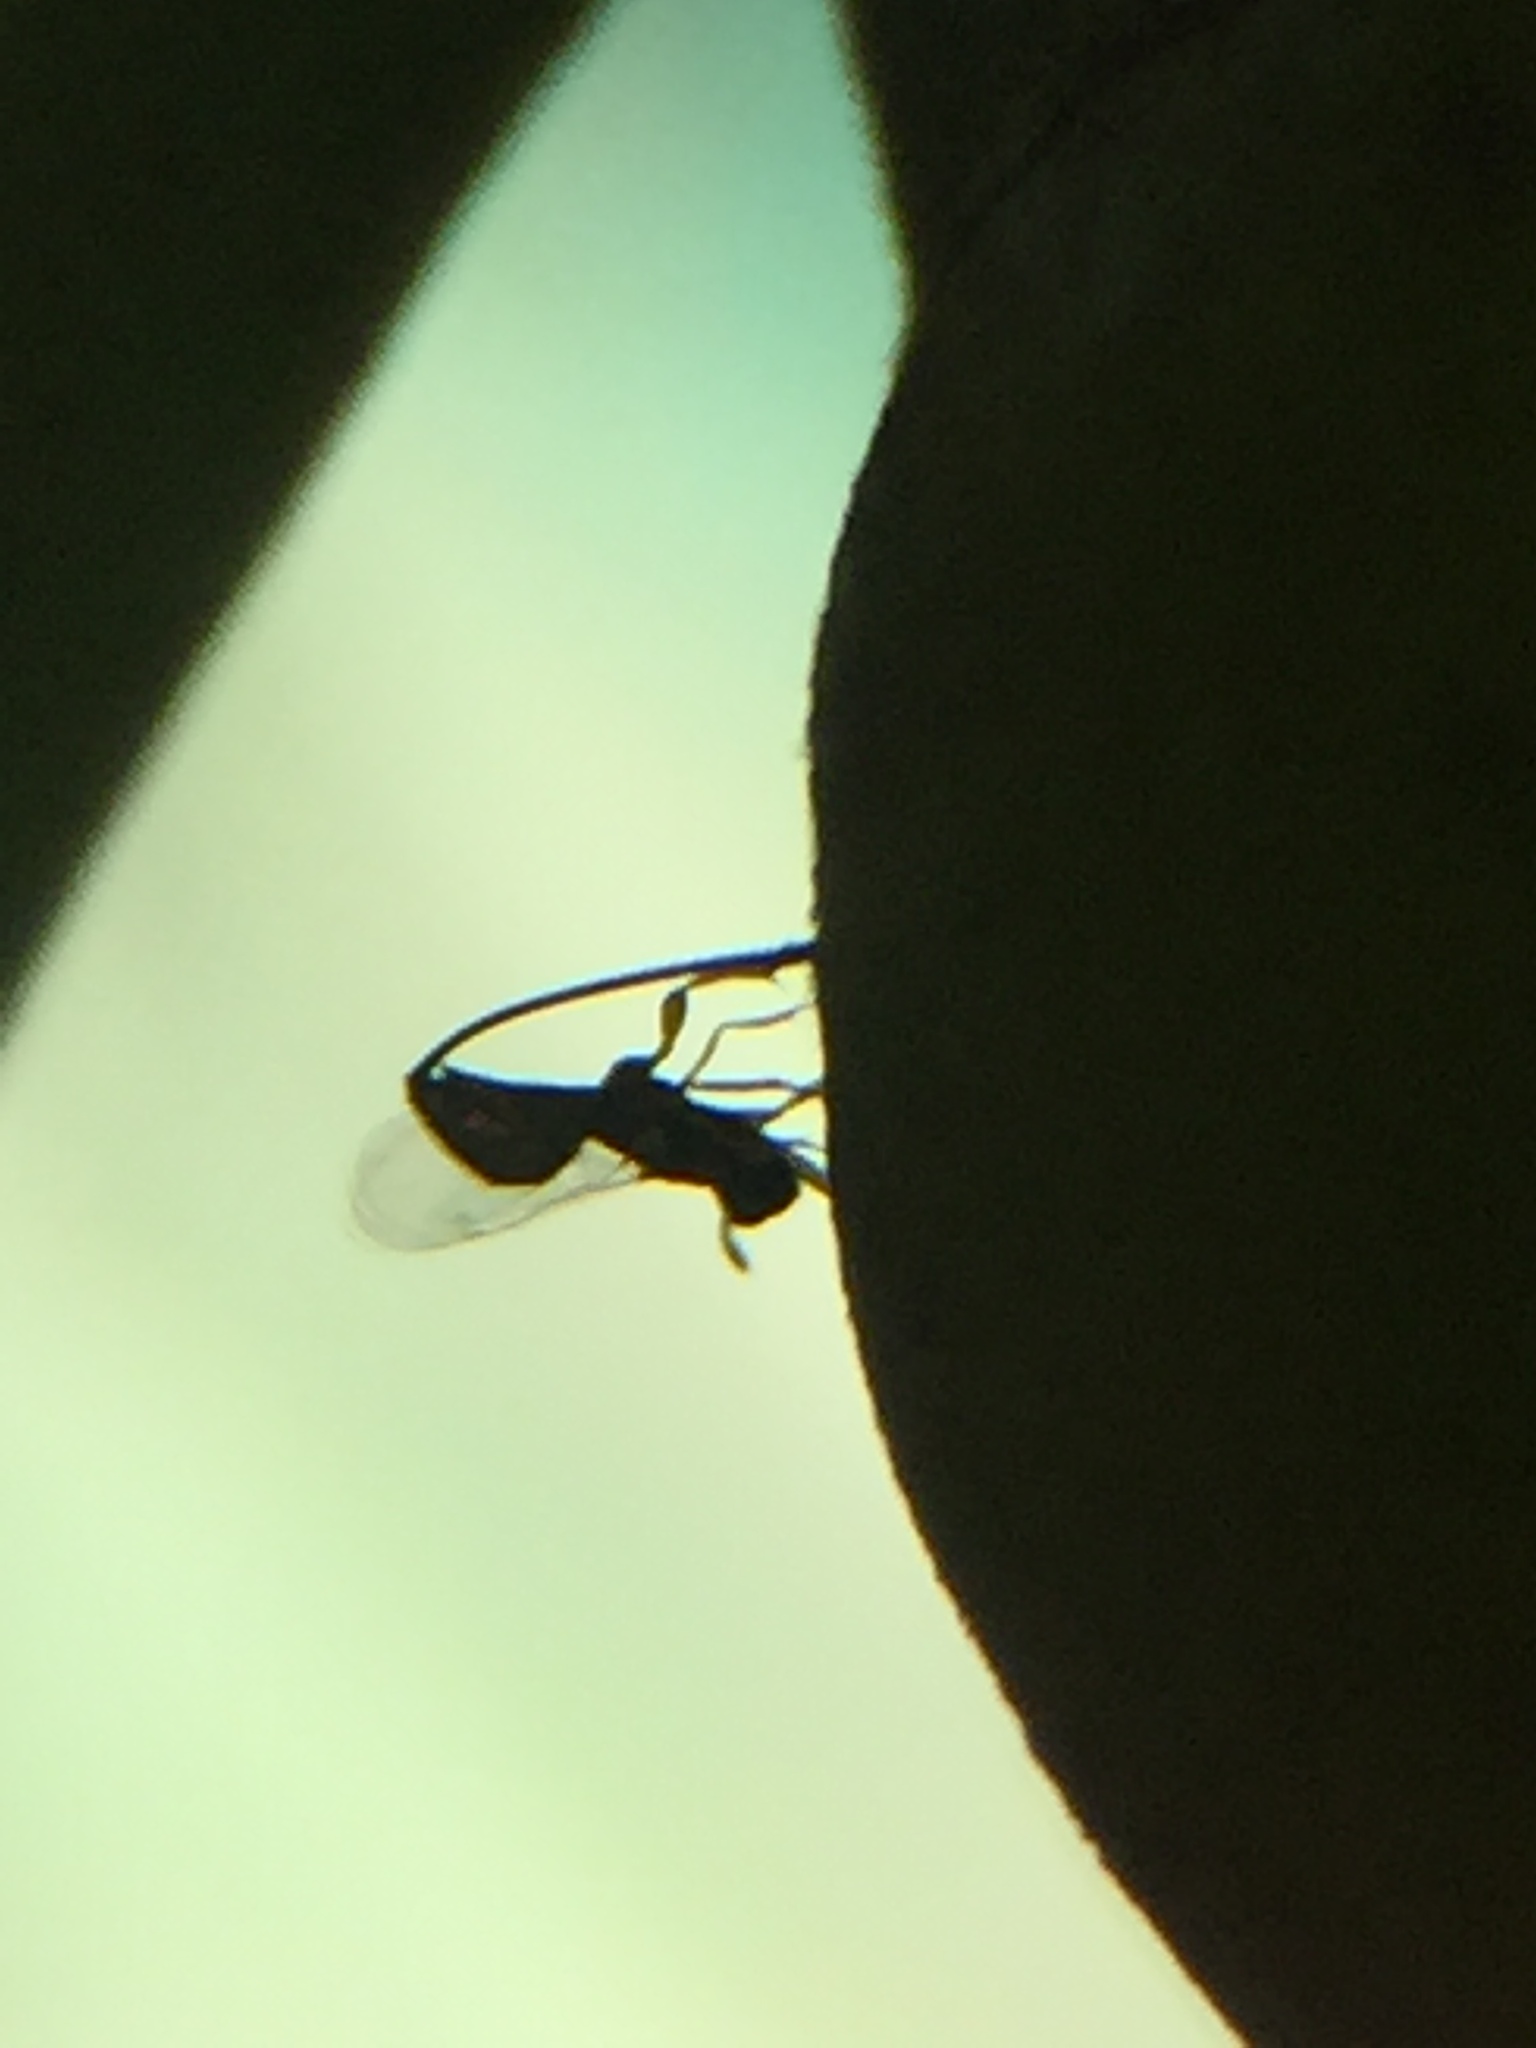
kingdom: Animalia
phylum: Arthropoda
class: Insecta
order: Hymenoptera
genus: Sycoscapter
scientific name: Sycoscapter
